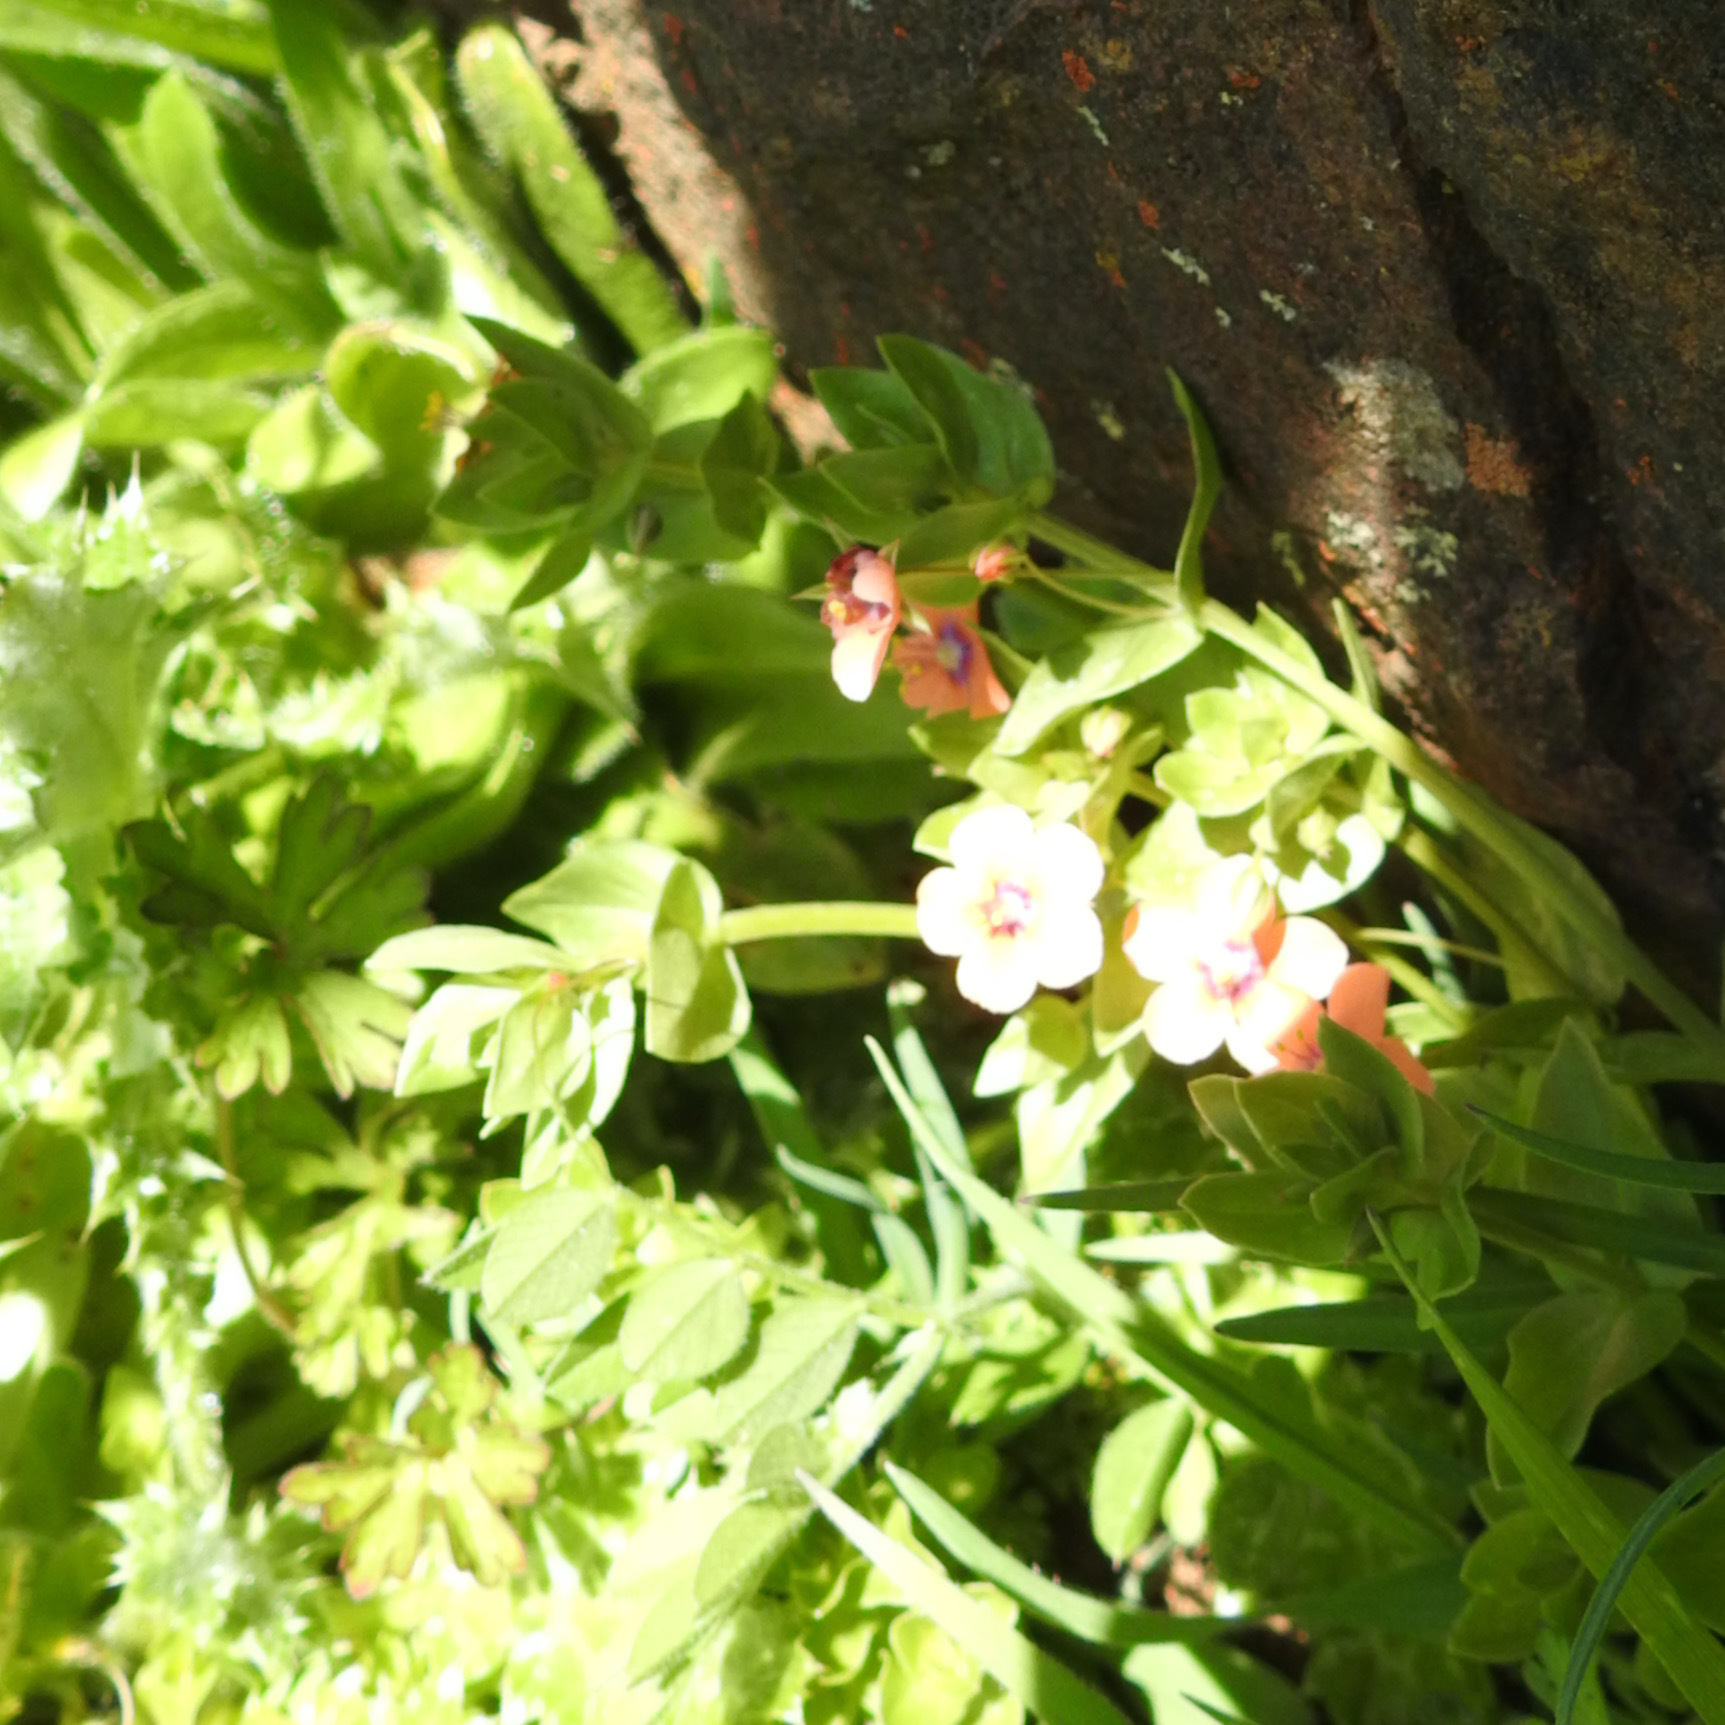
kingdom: Plantae
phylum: Tracheophyta
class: Magnoliopsida
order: Ericales
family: Primulaceae
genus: Lysimachia
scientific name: Lysimachia arvensis
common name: Scarlet pimpernel
